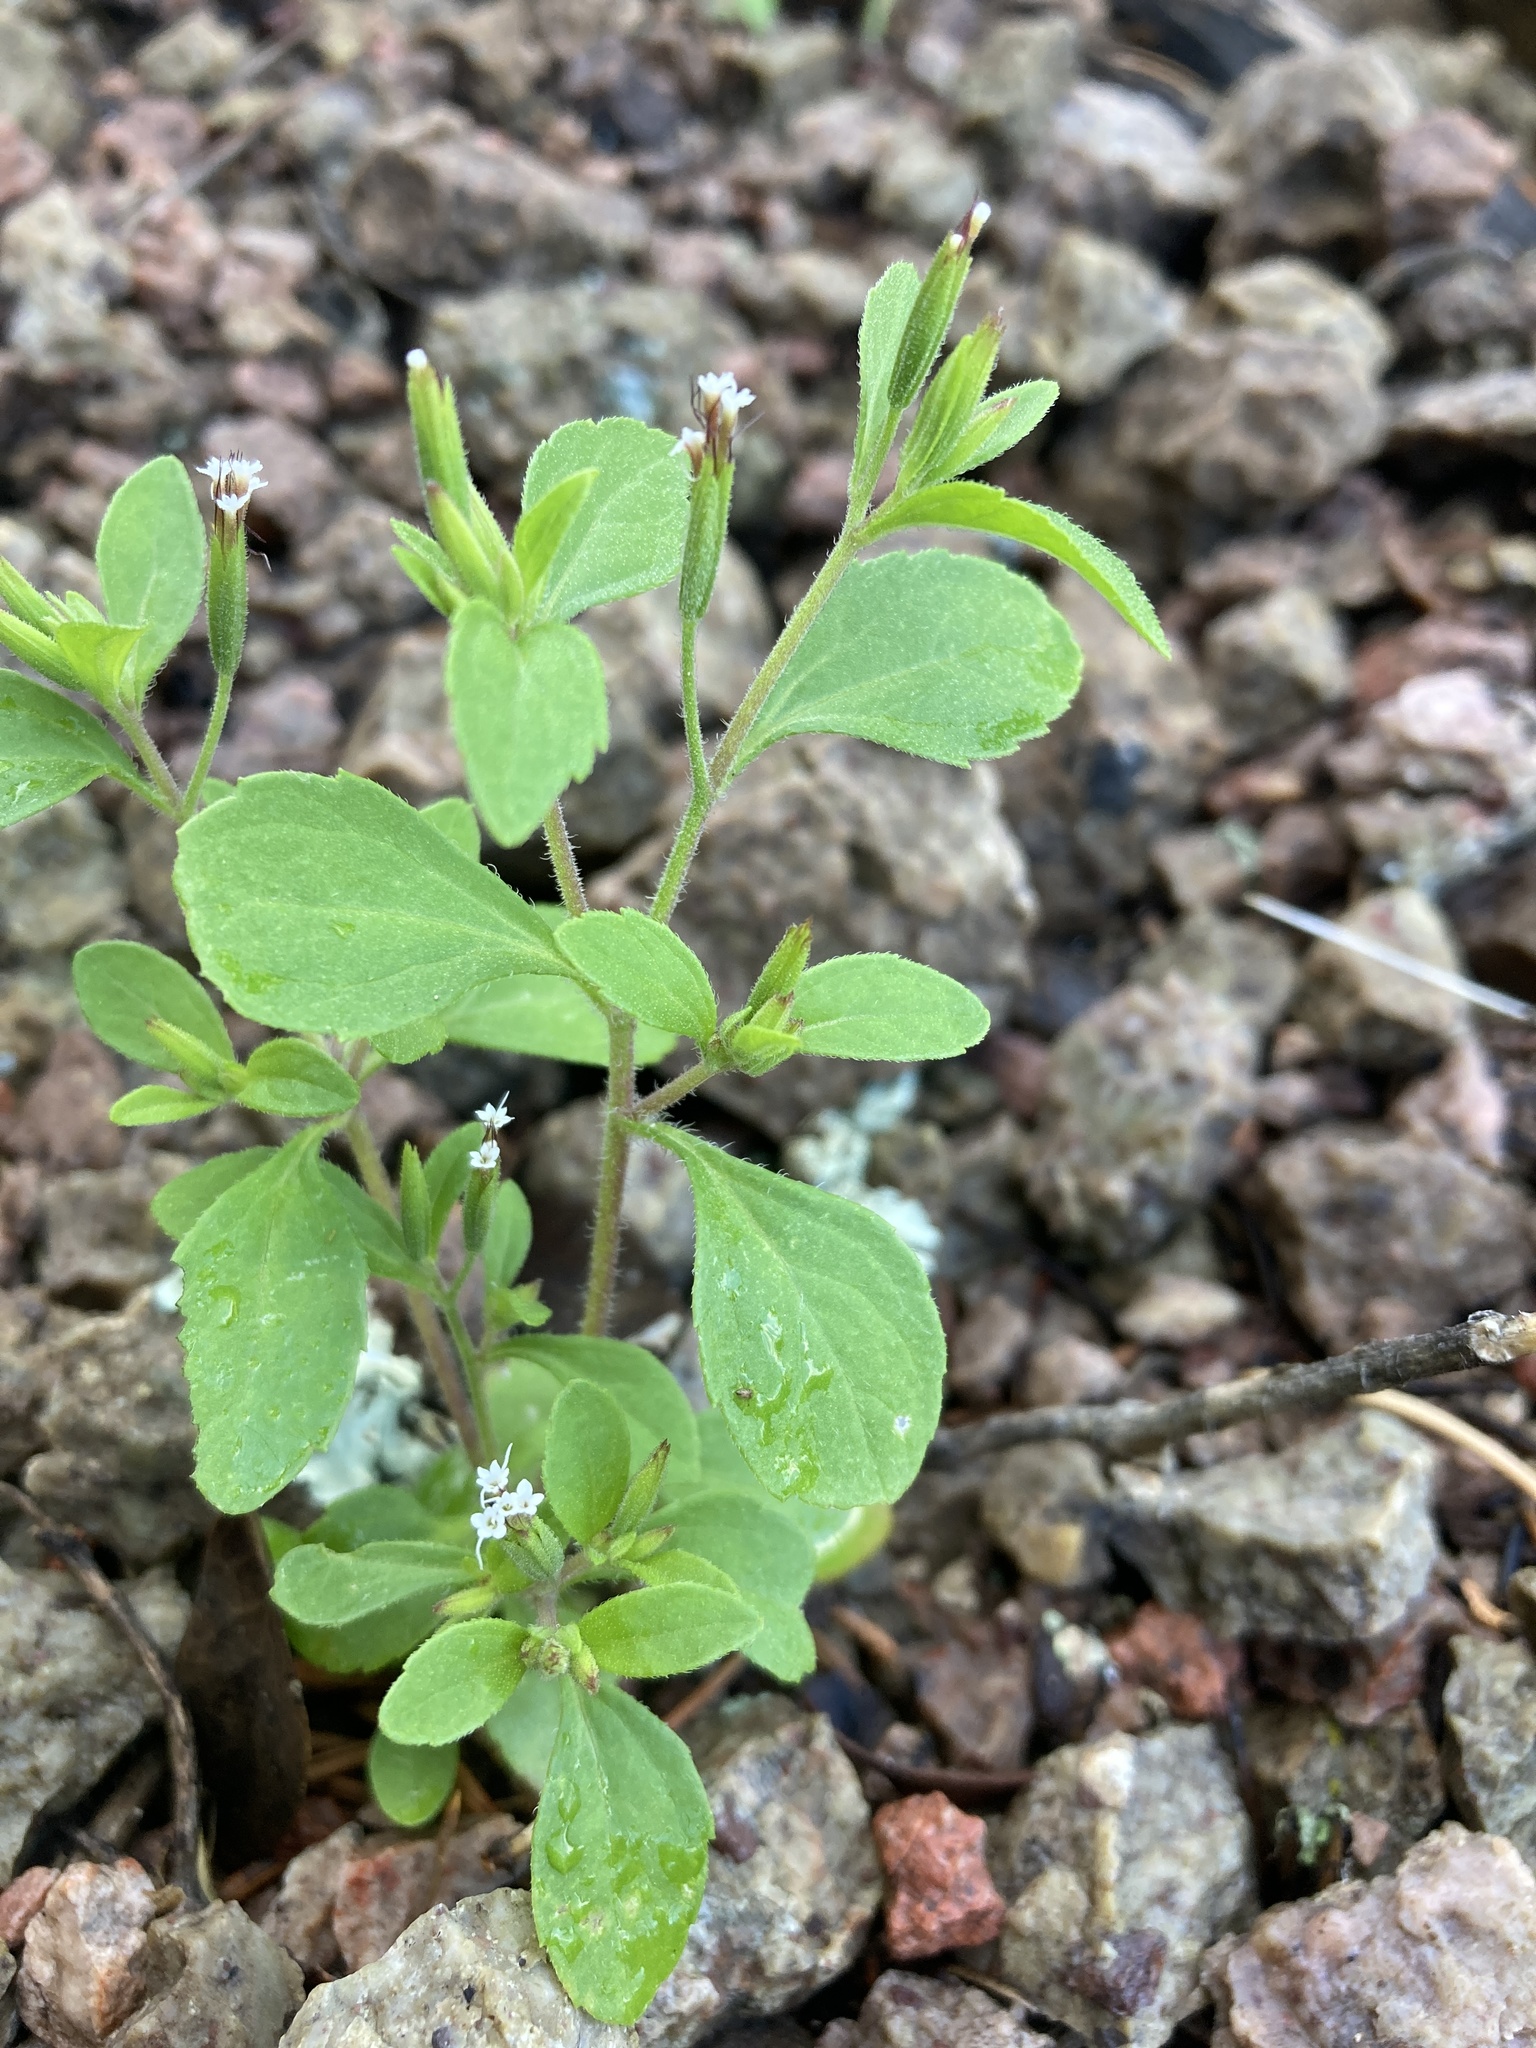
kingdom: Plantae
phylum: Tracheophyta
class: Magnoliopsida
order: Asterales
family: Asteraceae
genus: Stevia
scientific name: Stevia micrantha
